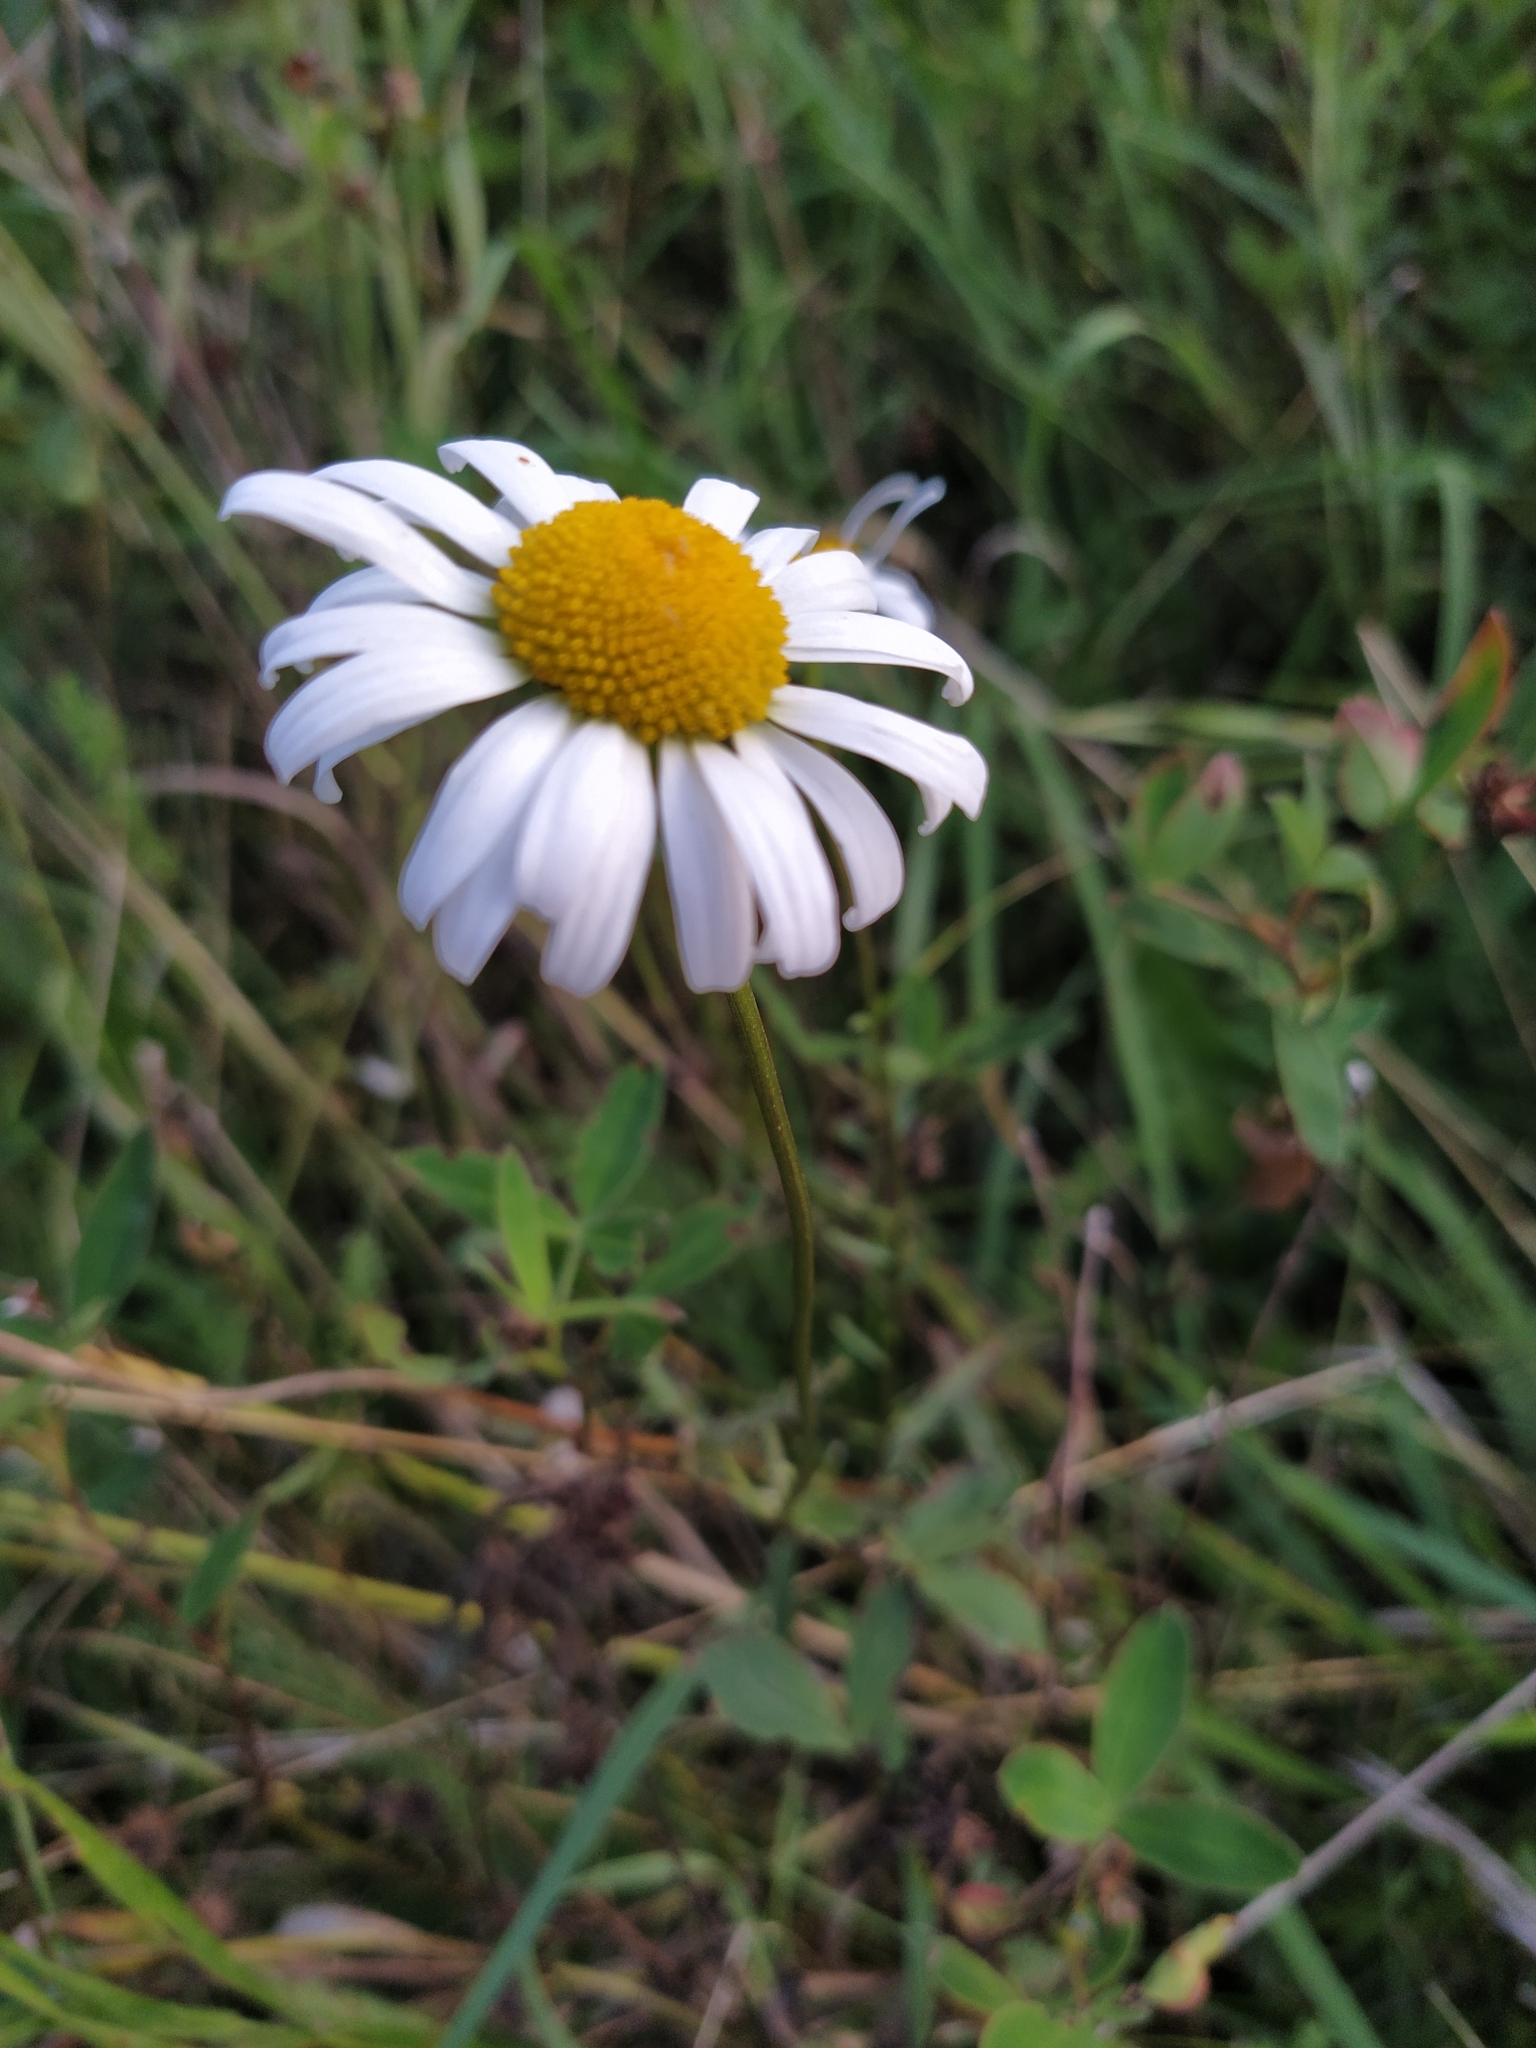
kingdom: Plantae
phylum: Tracheophyta
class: Magnoliopsida
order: Asterales
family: Asteraceae
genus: Leucanthemum
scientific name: Leucanthemum vulgare
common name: Oxeye daisy
